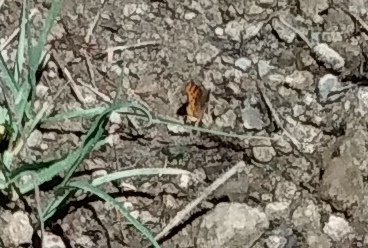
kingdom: Animalia
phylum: Arthropoda
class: Insecta
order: Lepidoptera
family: Nymphalidae
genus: Polygonia
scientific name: Polygonia gracilis
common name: Hoary comma
